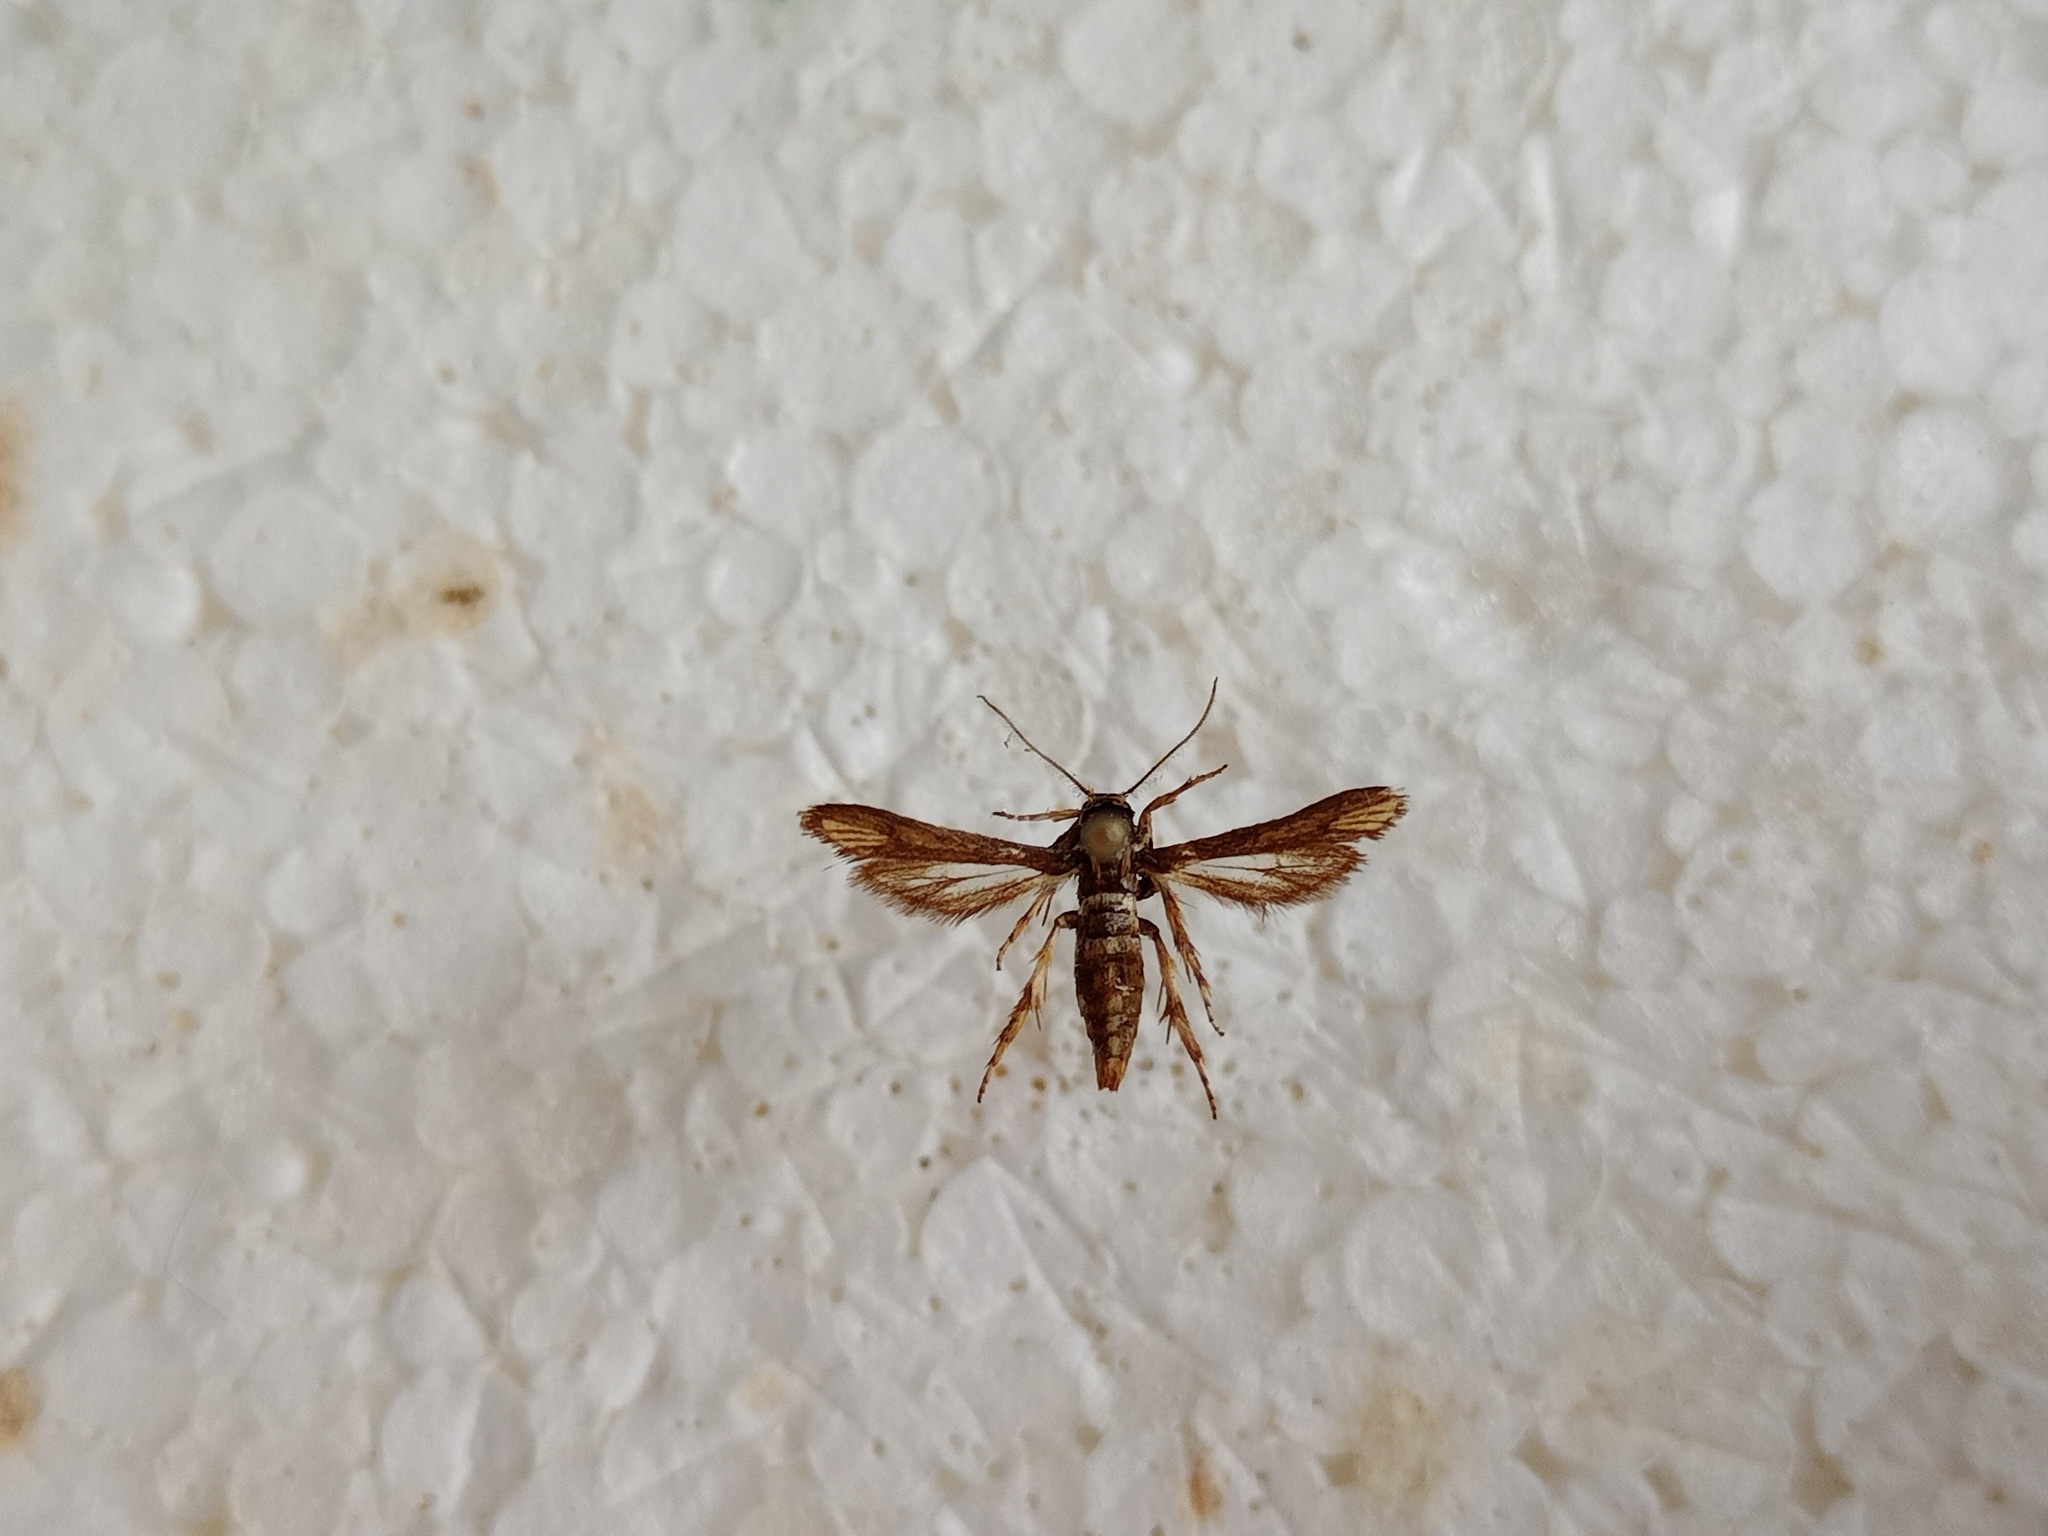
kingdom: Animalia
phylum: Arthropoda
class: Insecta
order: Lepidoptera
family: Sesiidae
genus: Microsphecia
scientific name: Microsphecia brosiformis
